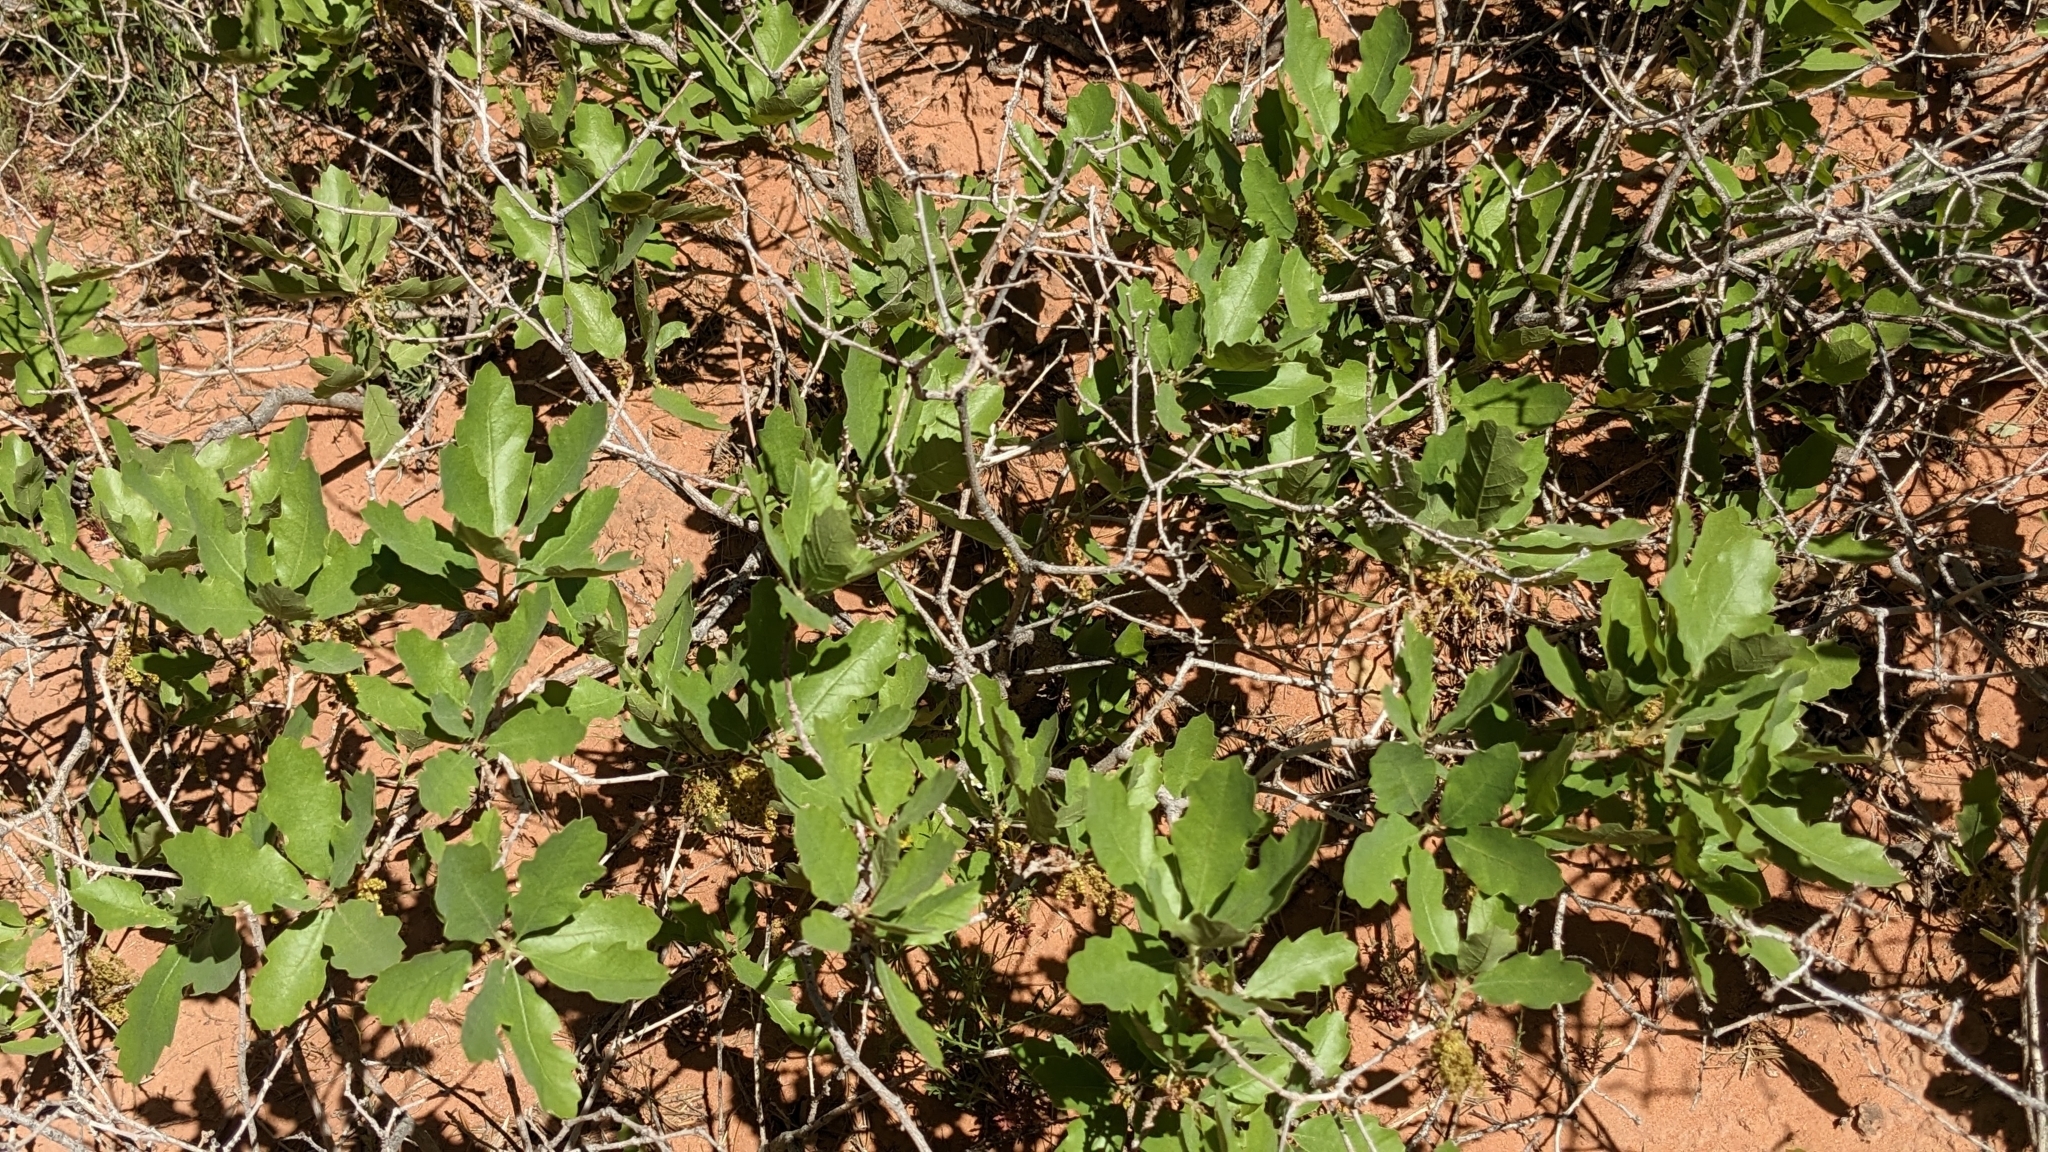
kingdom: Plantae
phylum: Tracheophyta
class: Magnoliopsida
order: Fagales
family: Fagaceae
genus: Quercus
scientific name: Quercus welshii
